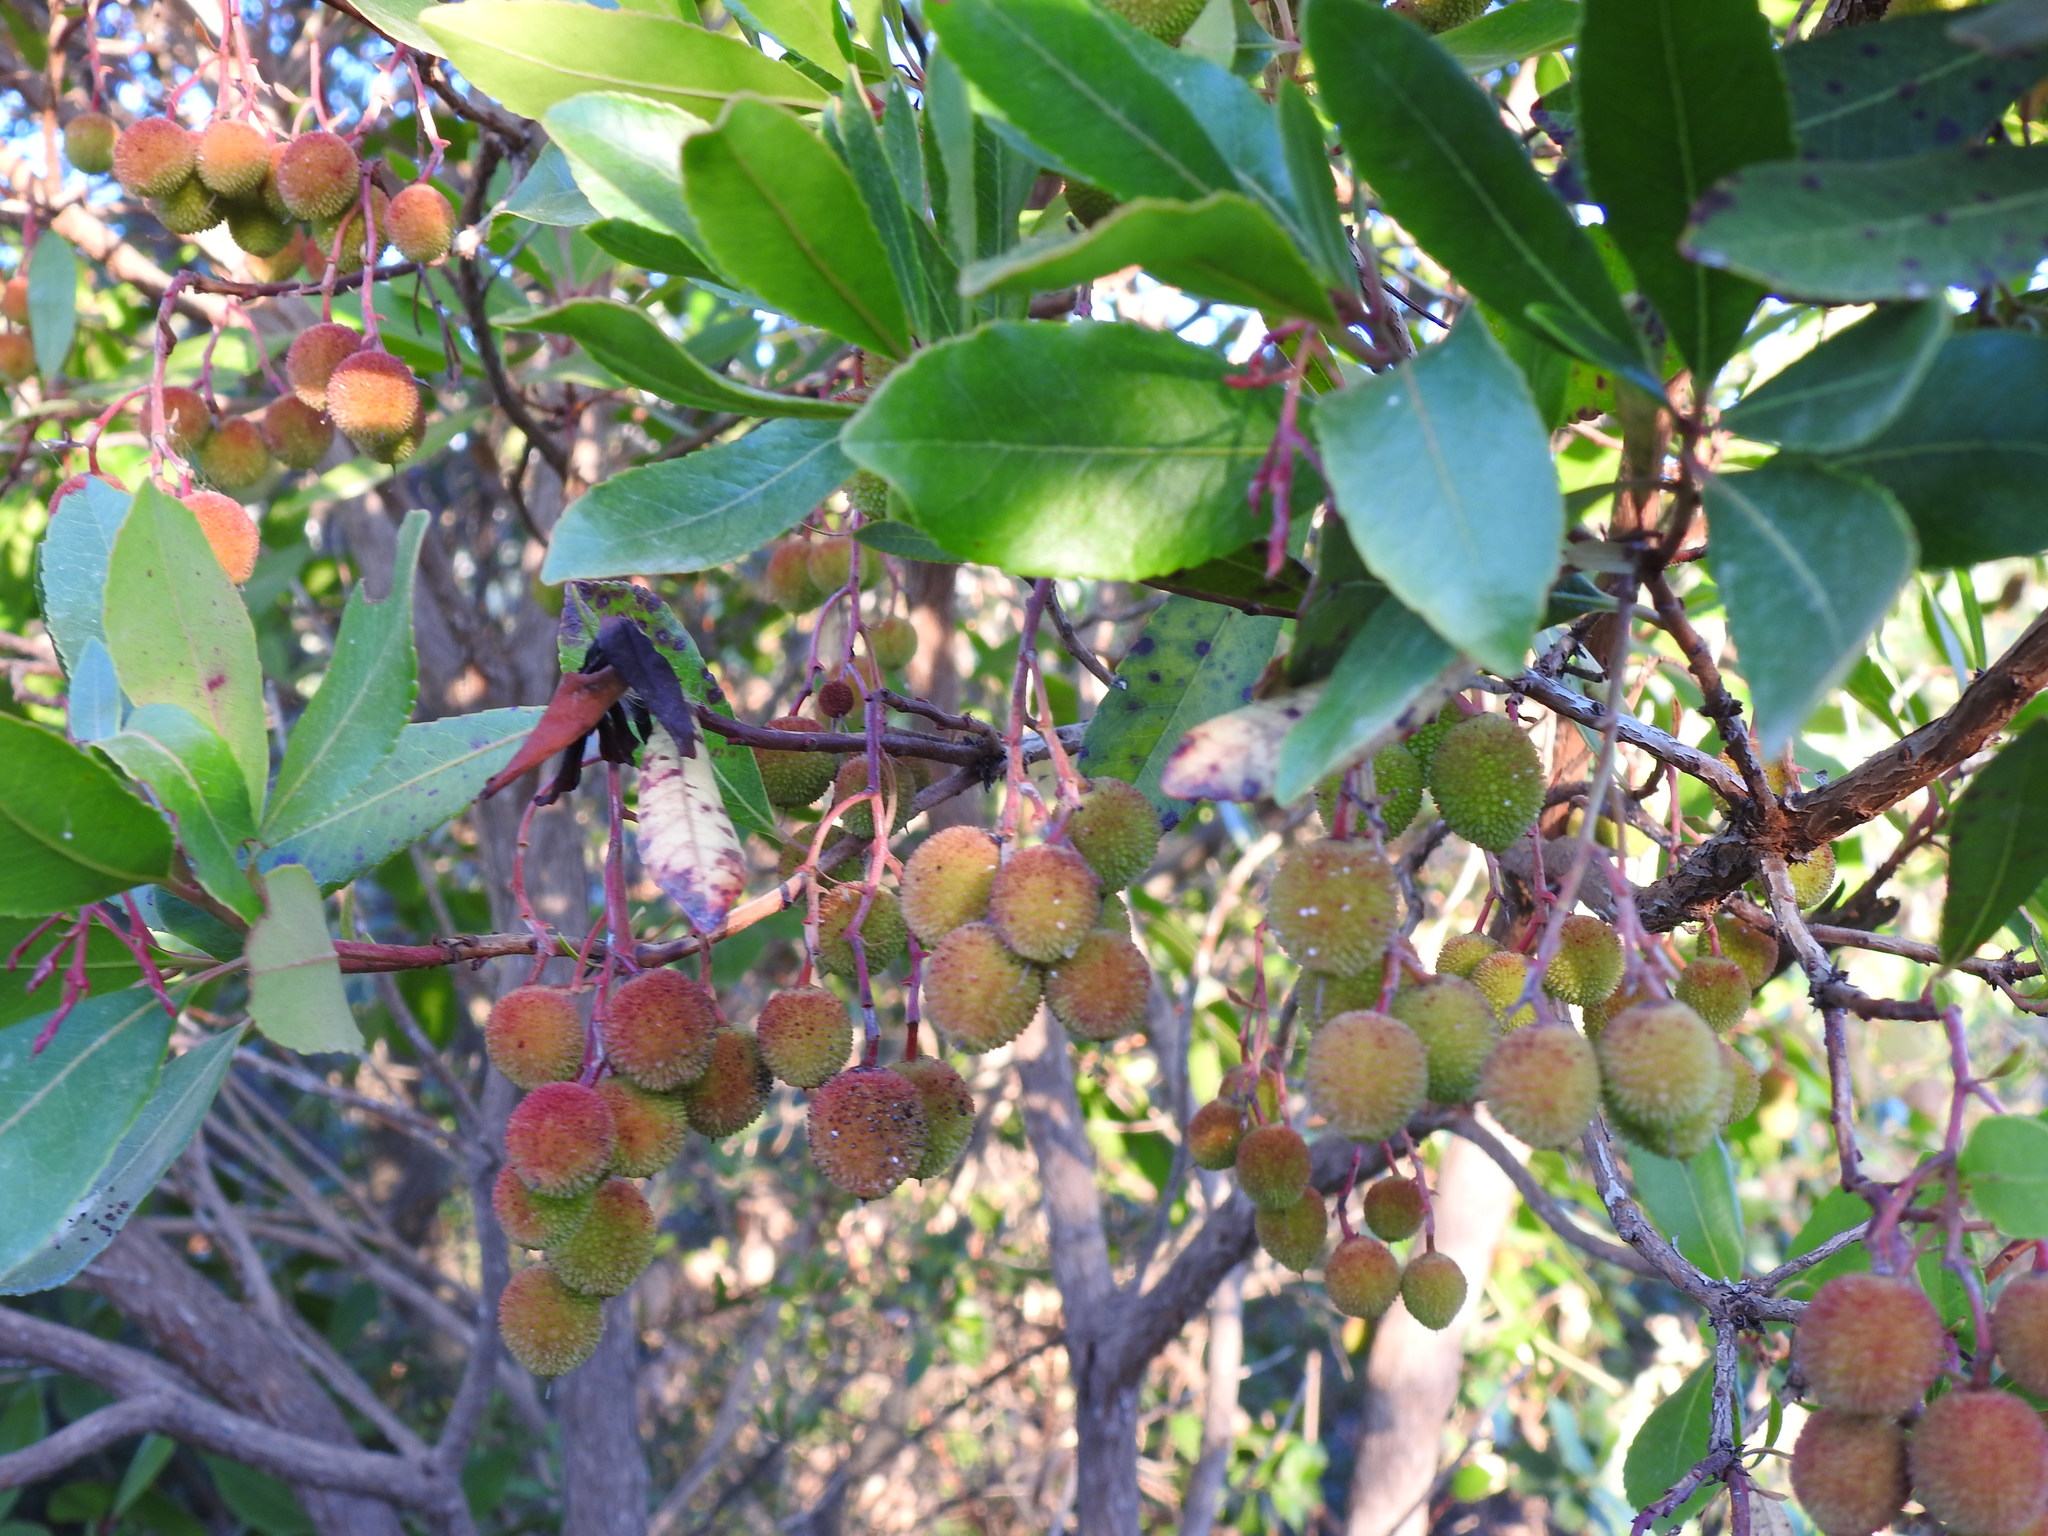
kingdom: Plantae
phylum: Tracheophyta
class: Magnoliopsida
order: Ericales
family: Ericaceae
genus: Arbutus
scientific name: Arbutus unedo
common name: Strawberry-tree
